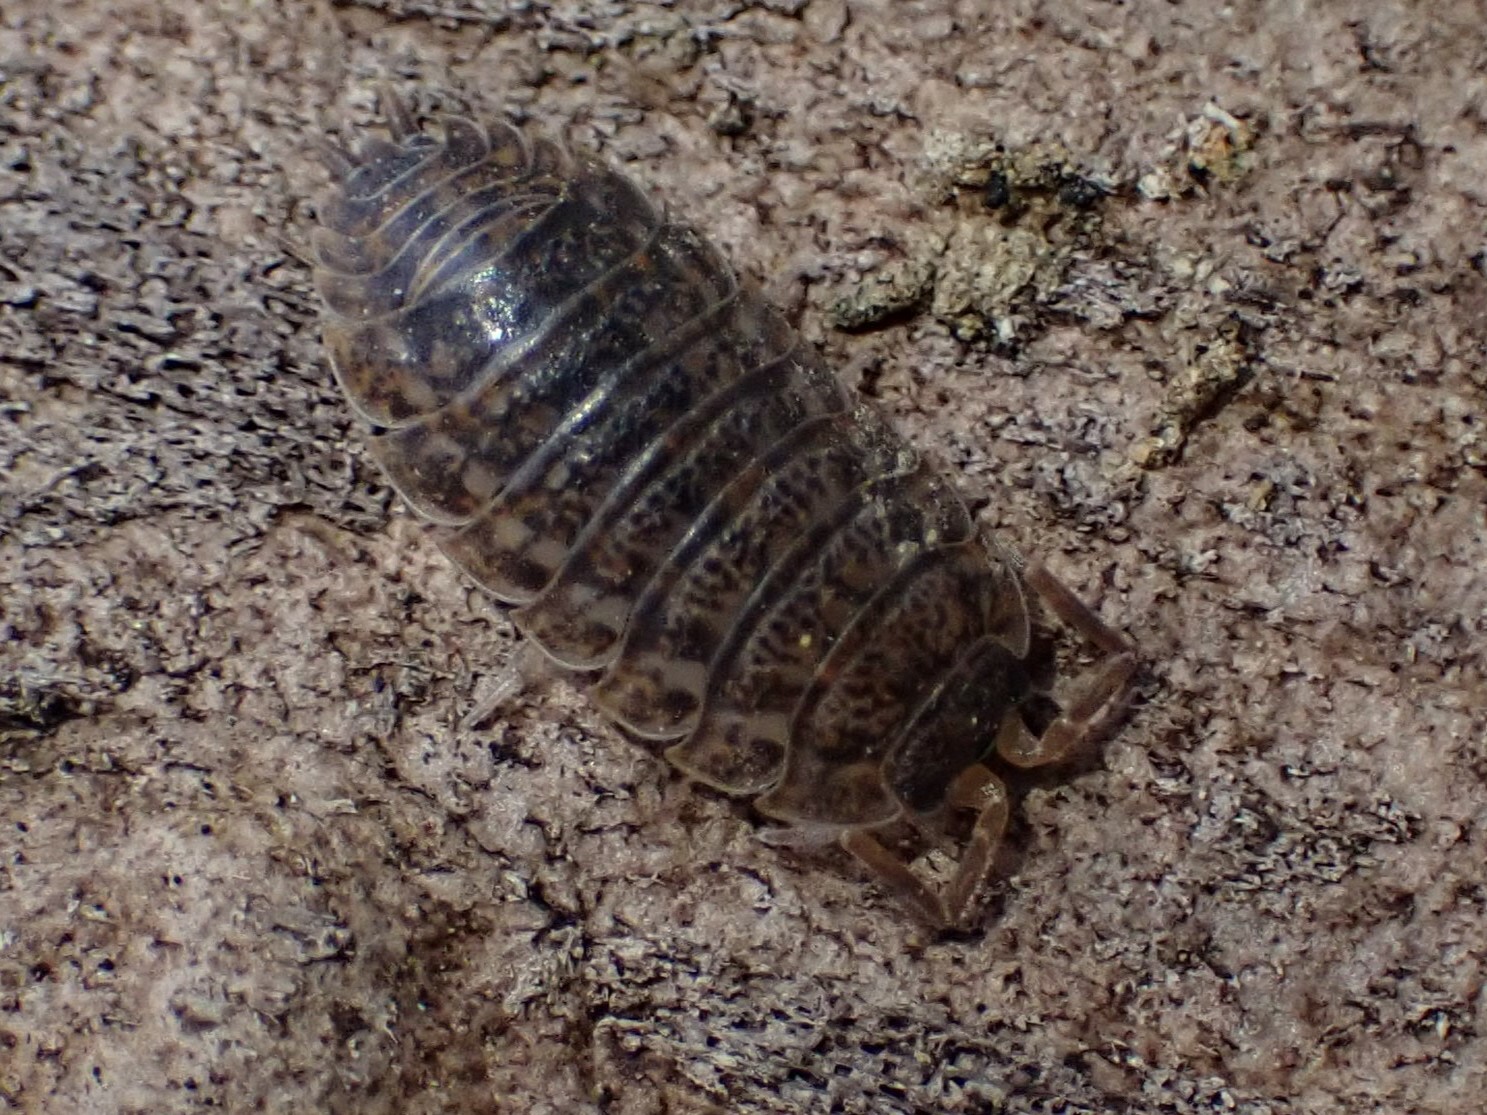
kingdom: Animalia
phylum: Arthropoda
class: Malacostraca
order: Isopoda
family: Trachelipodidae
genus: Trachelipus
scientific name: Trachelipus rathkii
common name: Isopod
